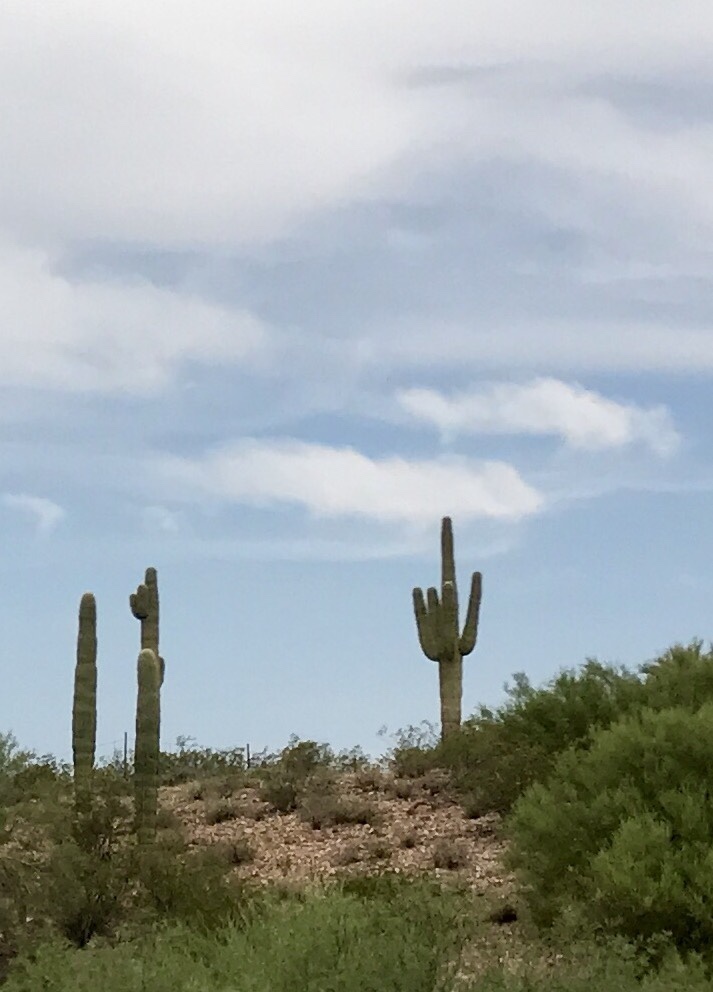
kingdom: Plantae
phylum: Tracheophyta
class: Magnoliopsida
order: Caryophyllales
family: Cactaceae
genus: Carnegiea
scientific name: Carnegiea gigantea
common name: Saguaro
